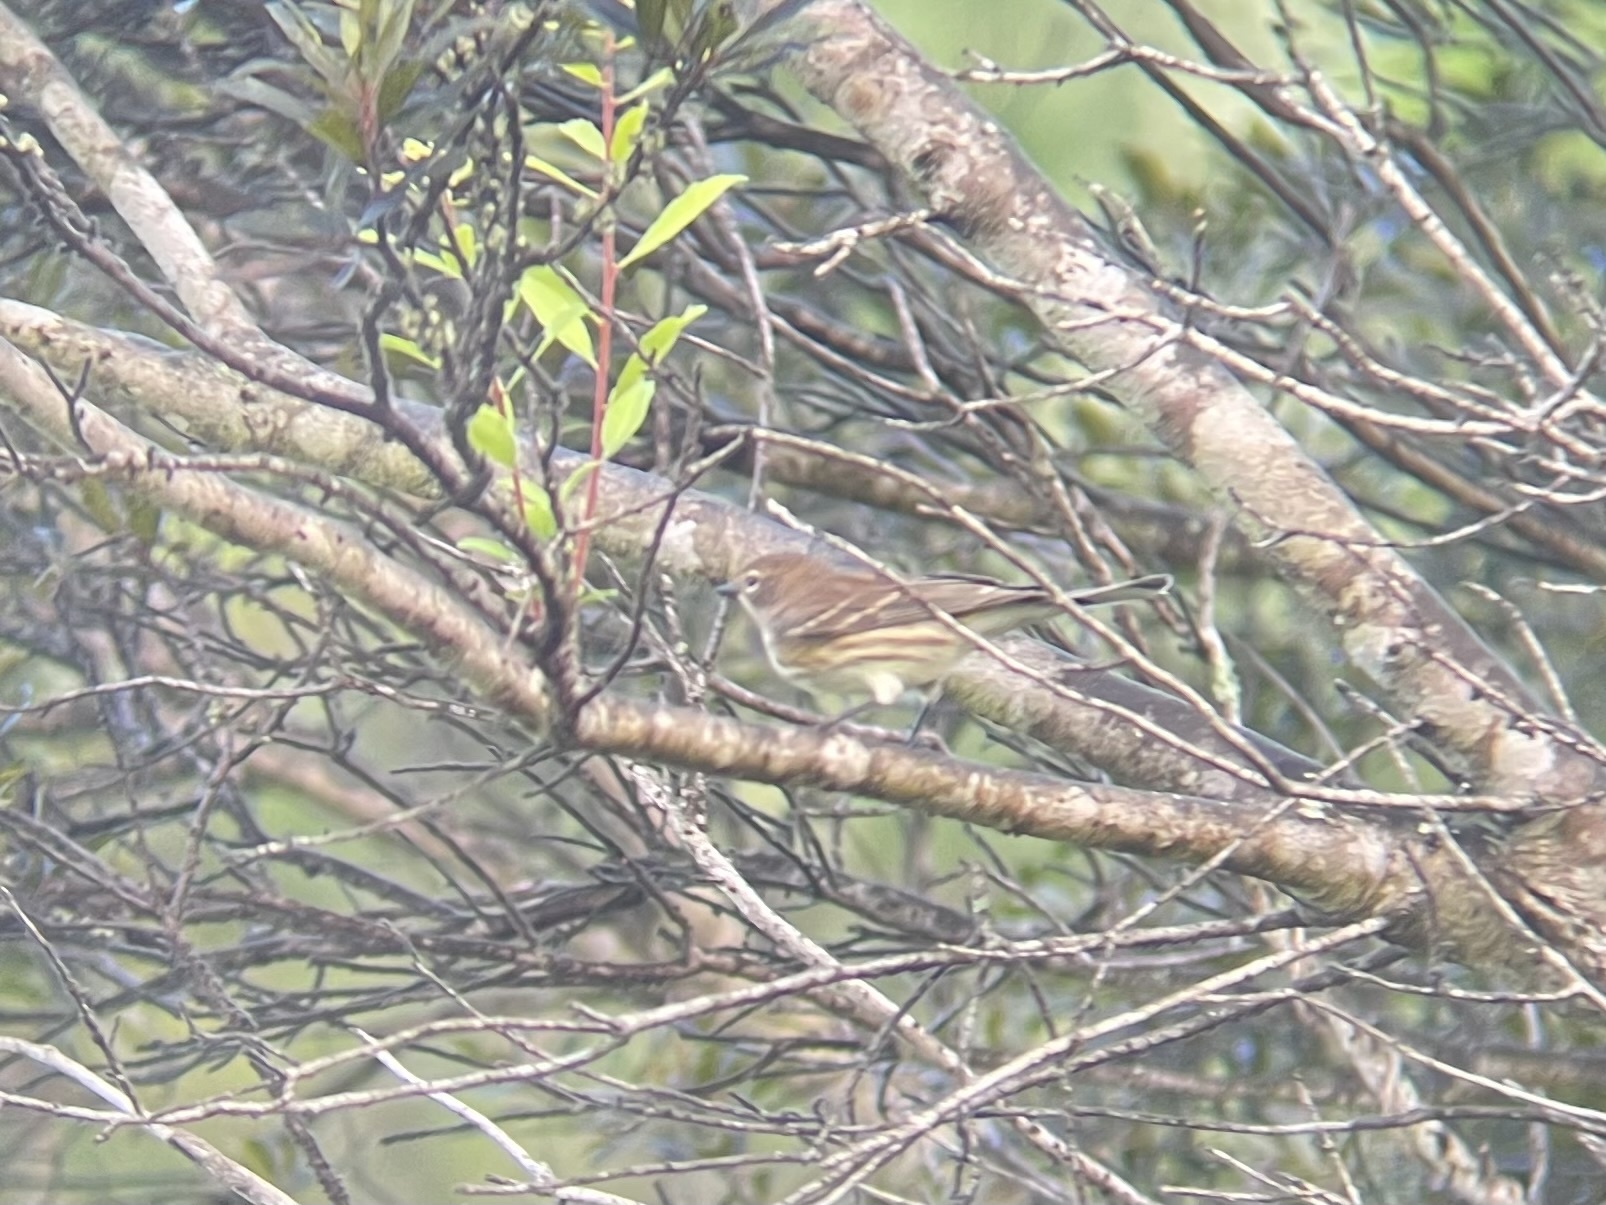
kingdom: Animalia
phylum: Chordata
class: Aves
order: Passeriformes
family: Parulidae
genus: Setophaga
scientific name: Setophaga coronata
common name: Myrtle warbler
